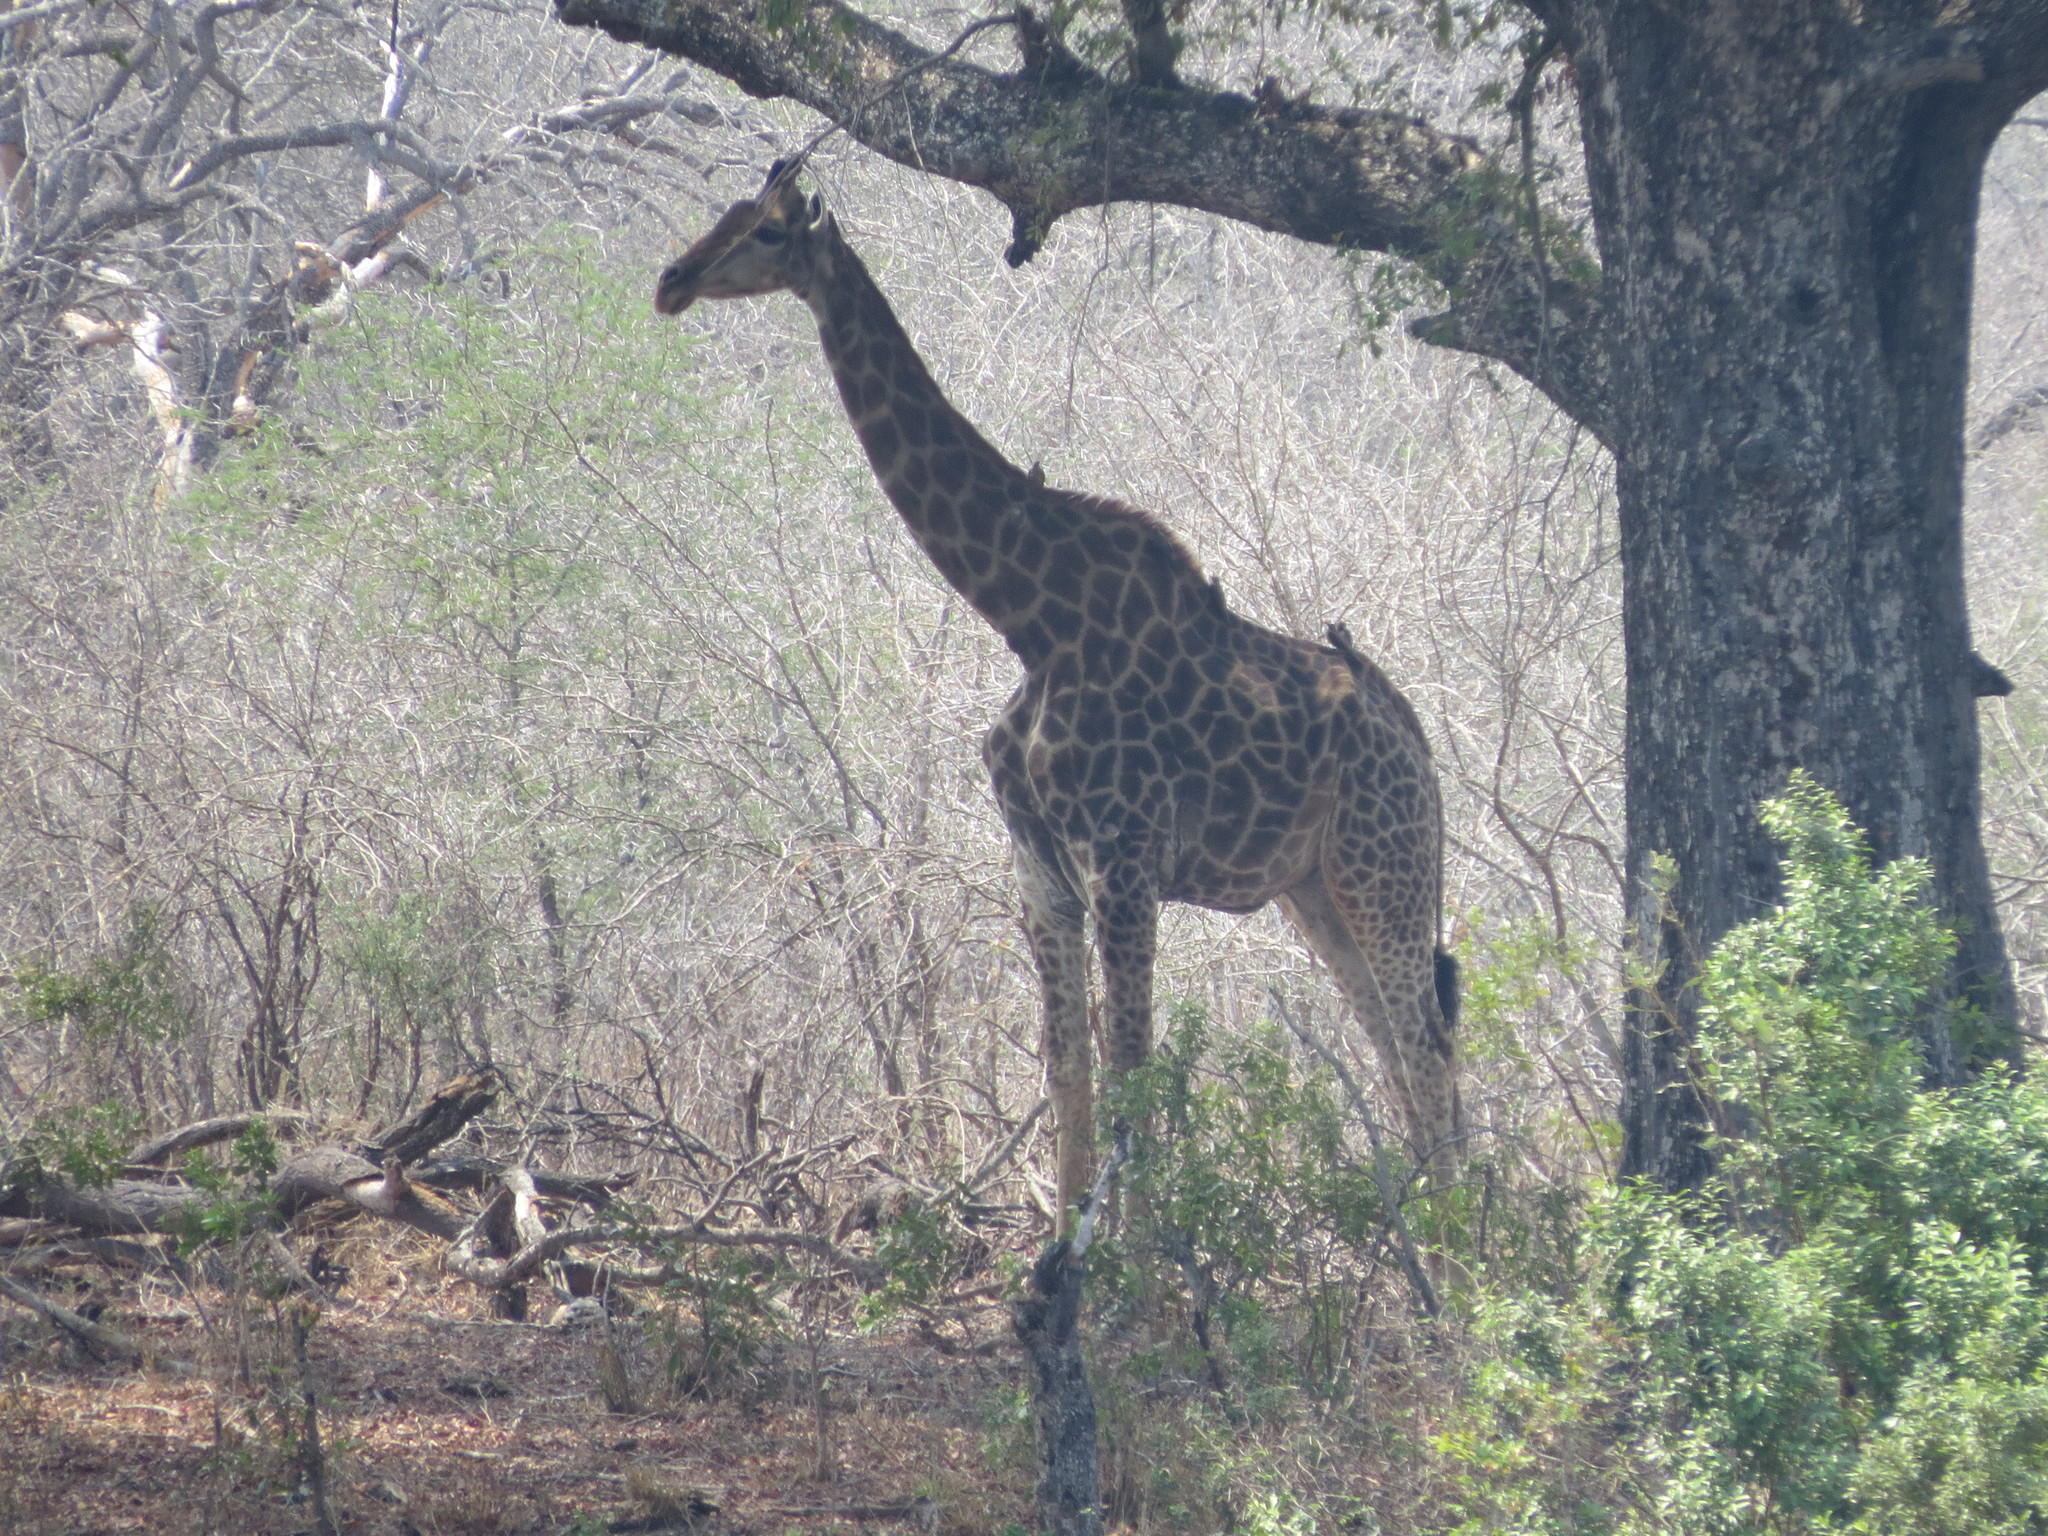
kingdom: Animalia
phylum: Chordata
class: Mammalia
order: Artiodactyla
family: Giraffidae
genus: Giraffa
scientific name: Giraffa giraffa
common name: Southern giraffe
